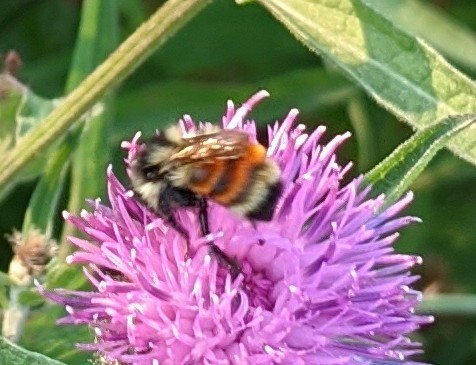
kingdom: Animalia
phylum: Arthropoda
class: Insecta
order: Hymenoptera
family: Apidae
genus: Bombus
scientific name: Bombus ternarius
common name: Tri-colored bumble bee
